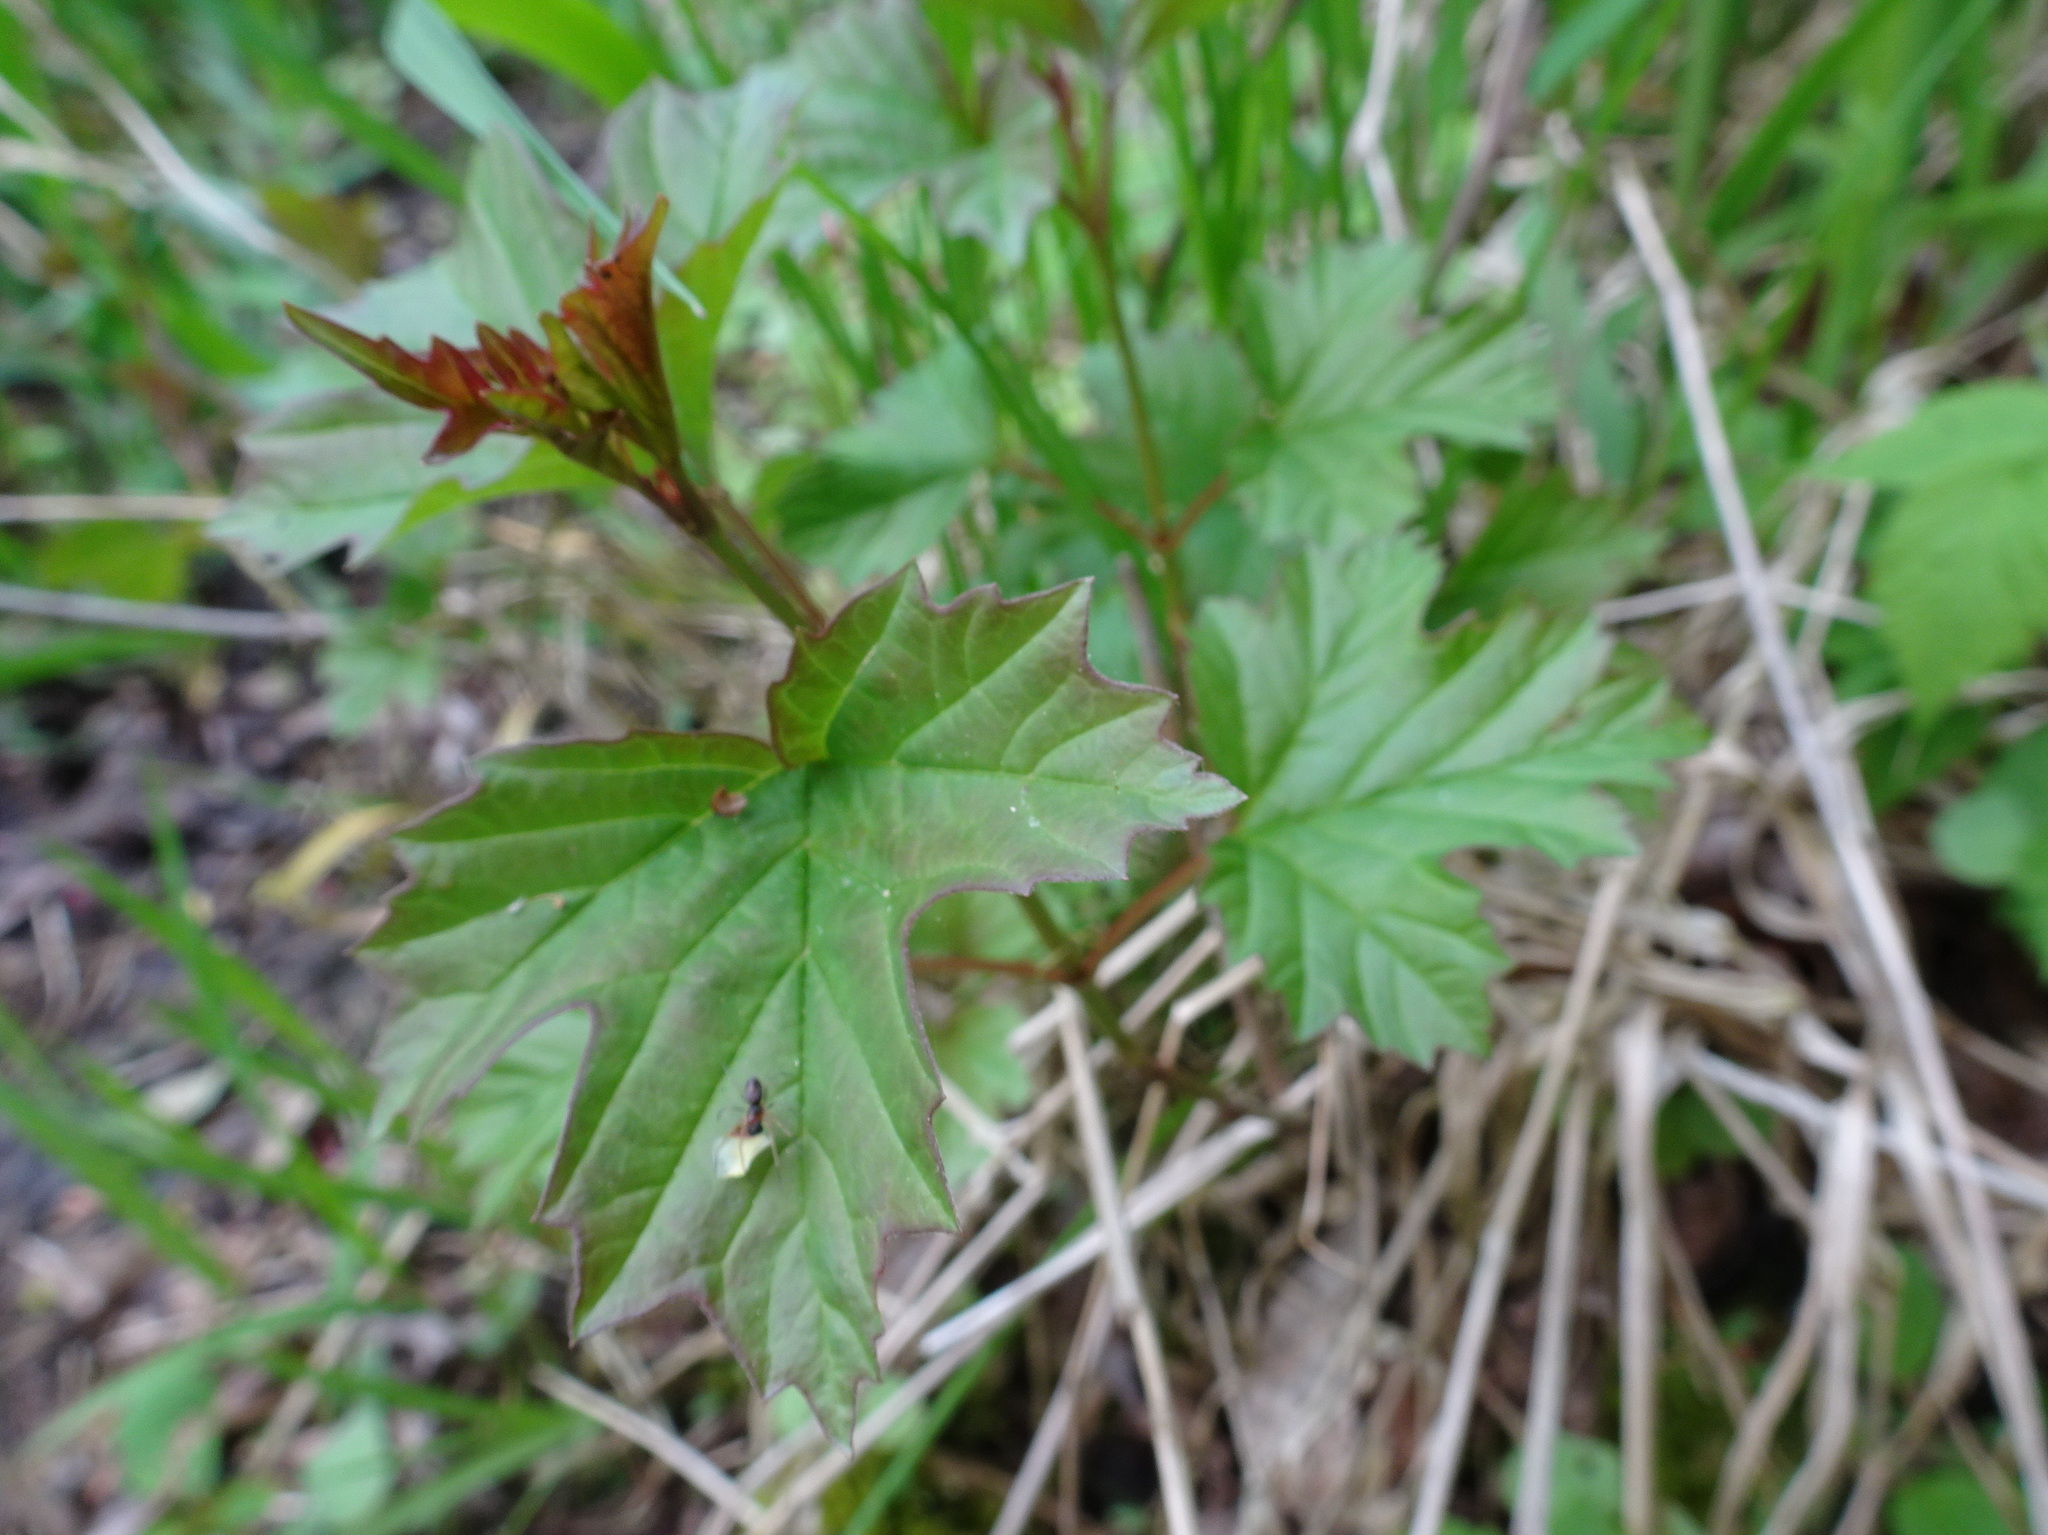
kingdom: Plantae
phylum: Tracheophyta
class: Magnoliopsida
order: Dipsacales
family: Viburnaceae
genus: Viburnum
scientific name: Viburnum opulus
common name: Guelder-rose
